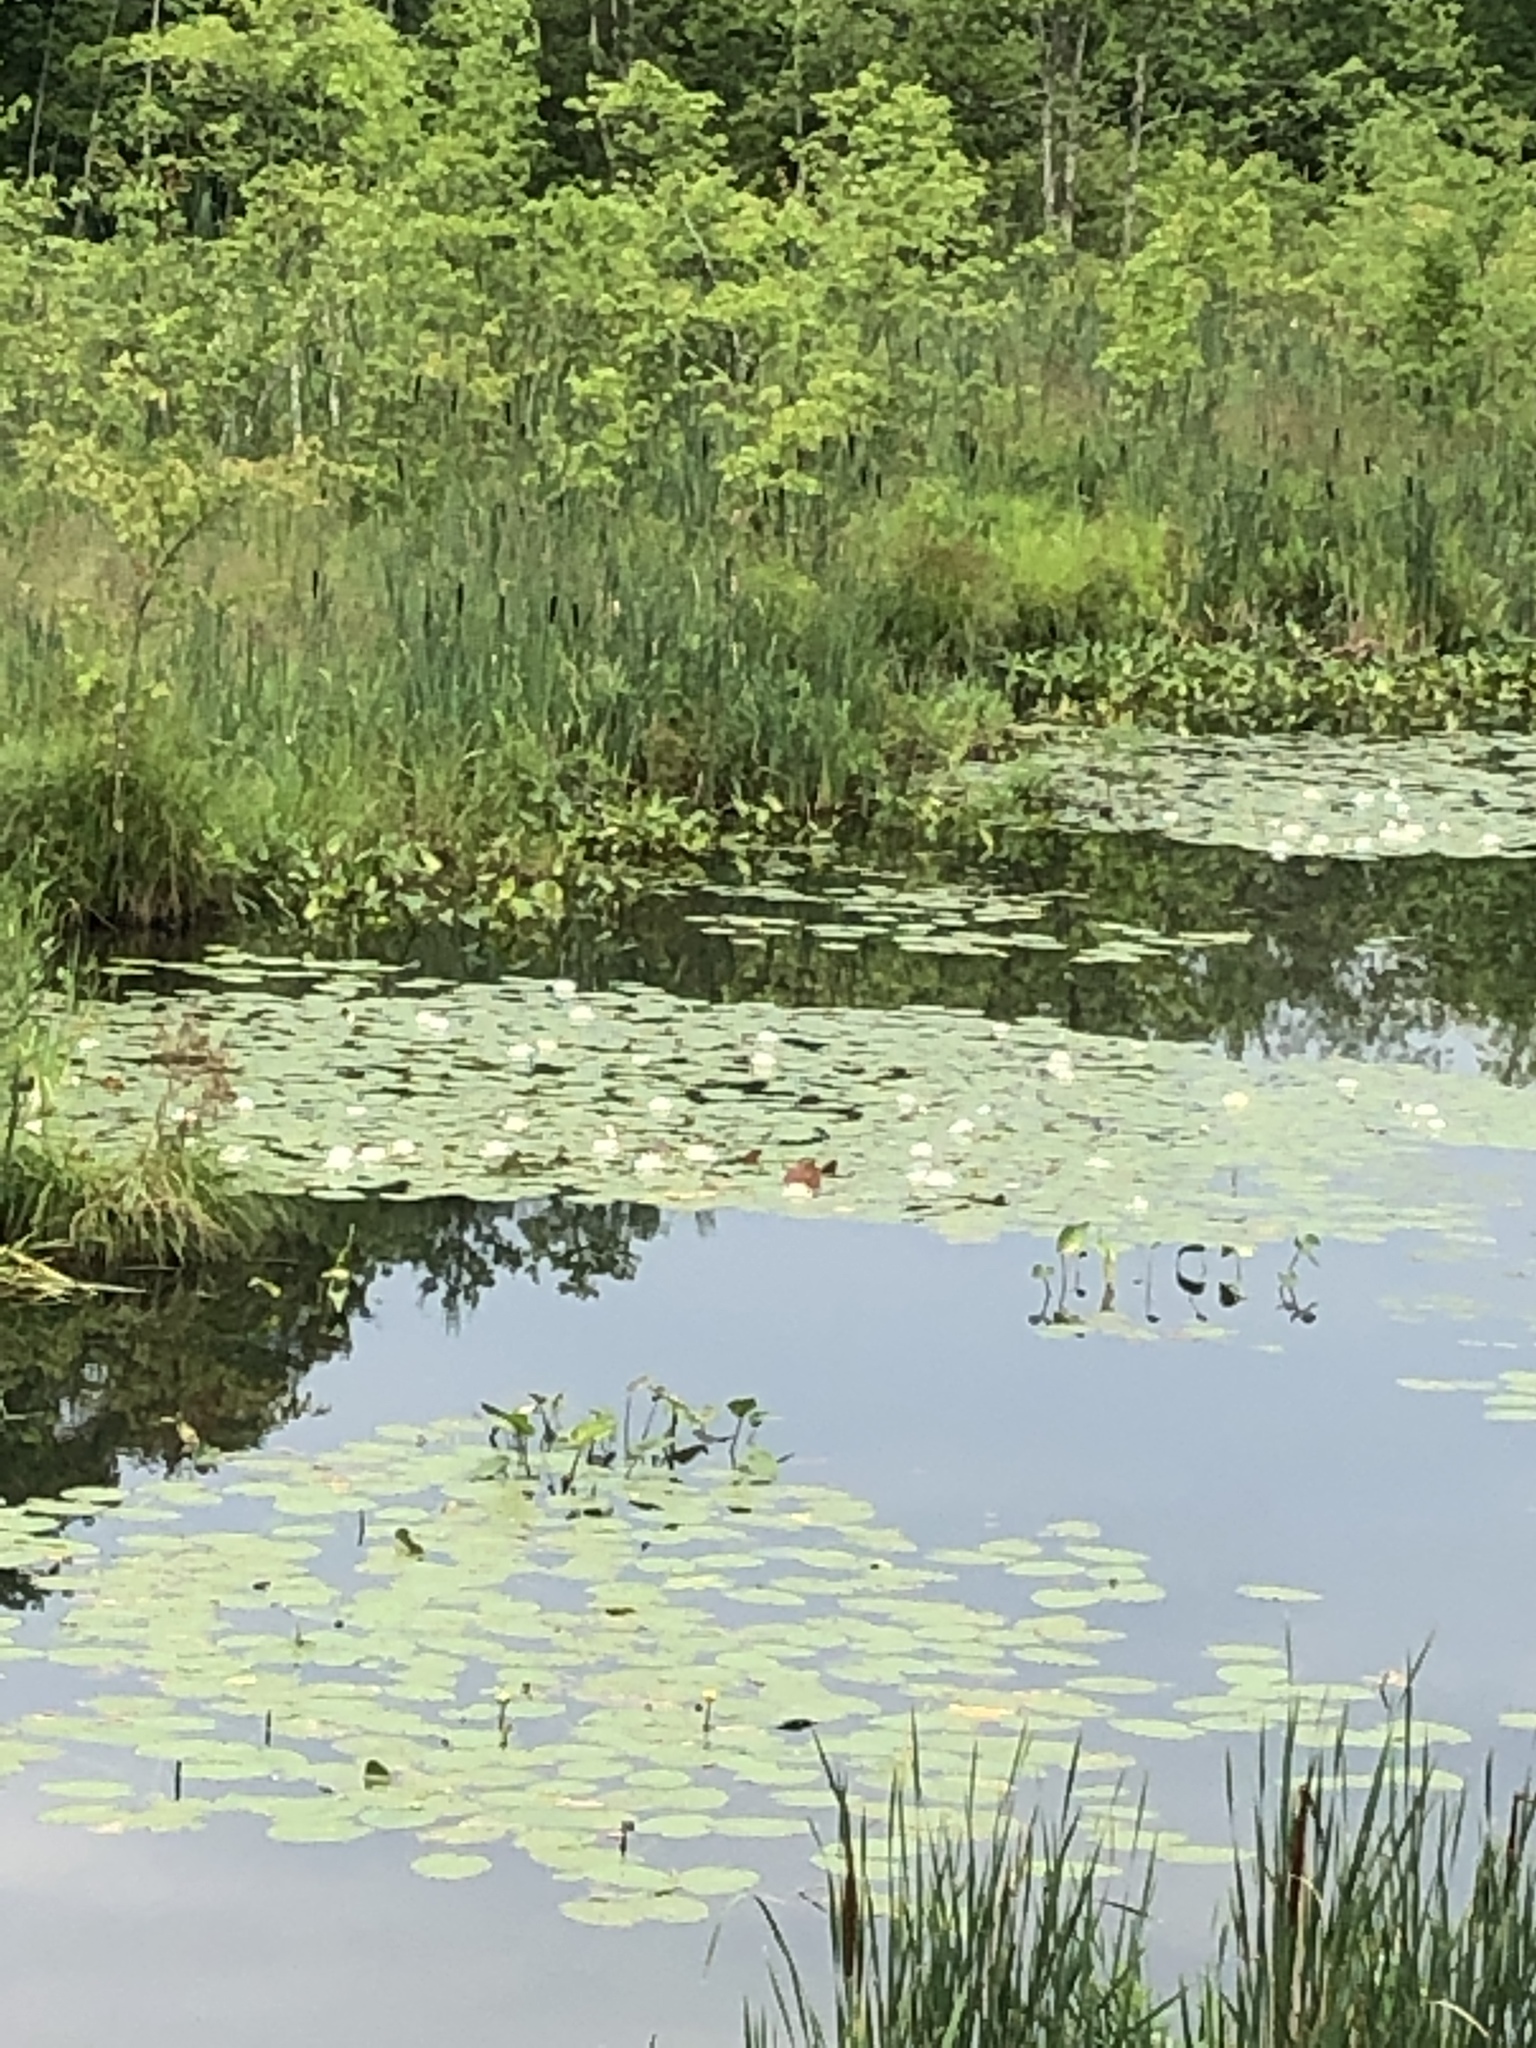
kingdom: Plantae
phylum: Tracheophyta
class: Magnoliopsida
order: Nymphaeales
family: Nymphaeaceae
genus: Nymphaea
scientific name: Nymphaea odorata
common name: Fragrant water-lily
